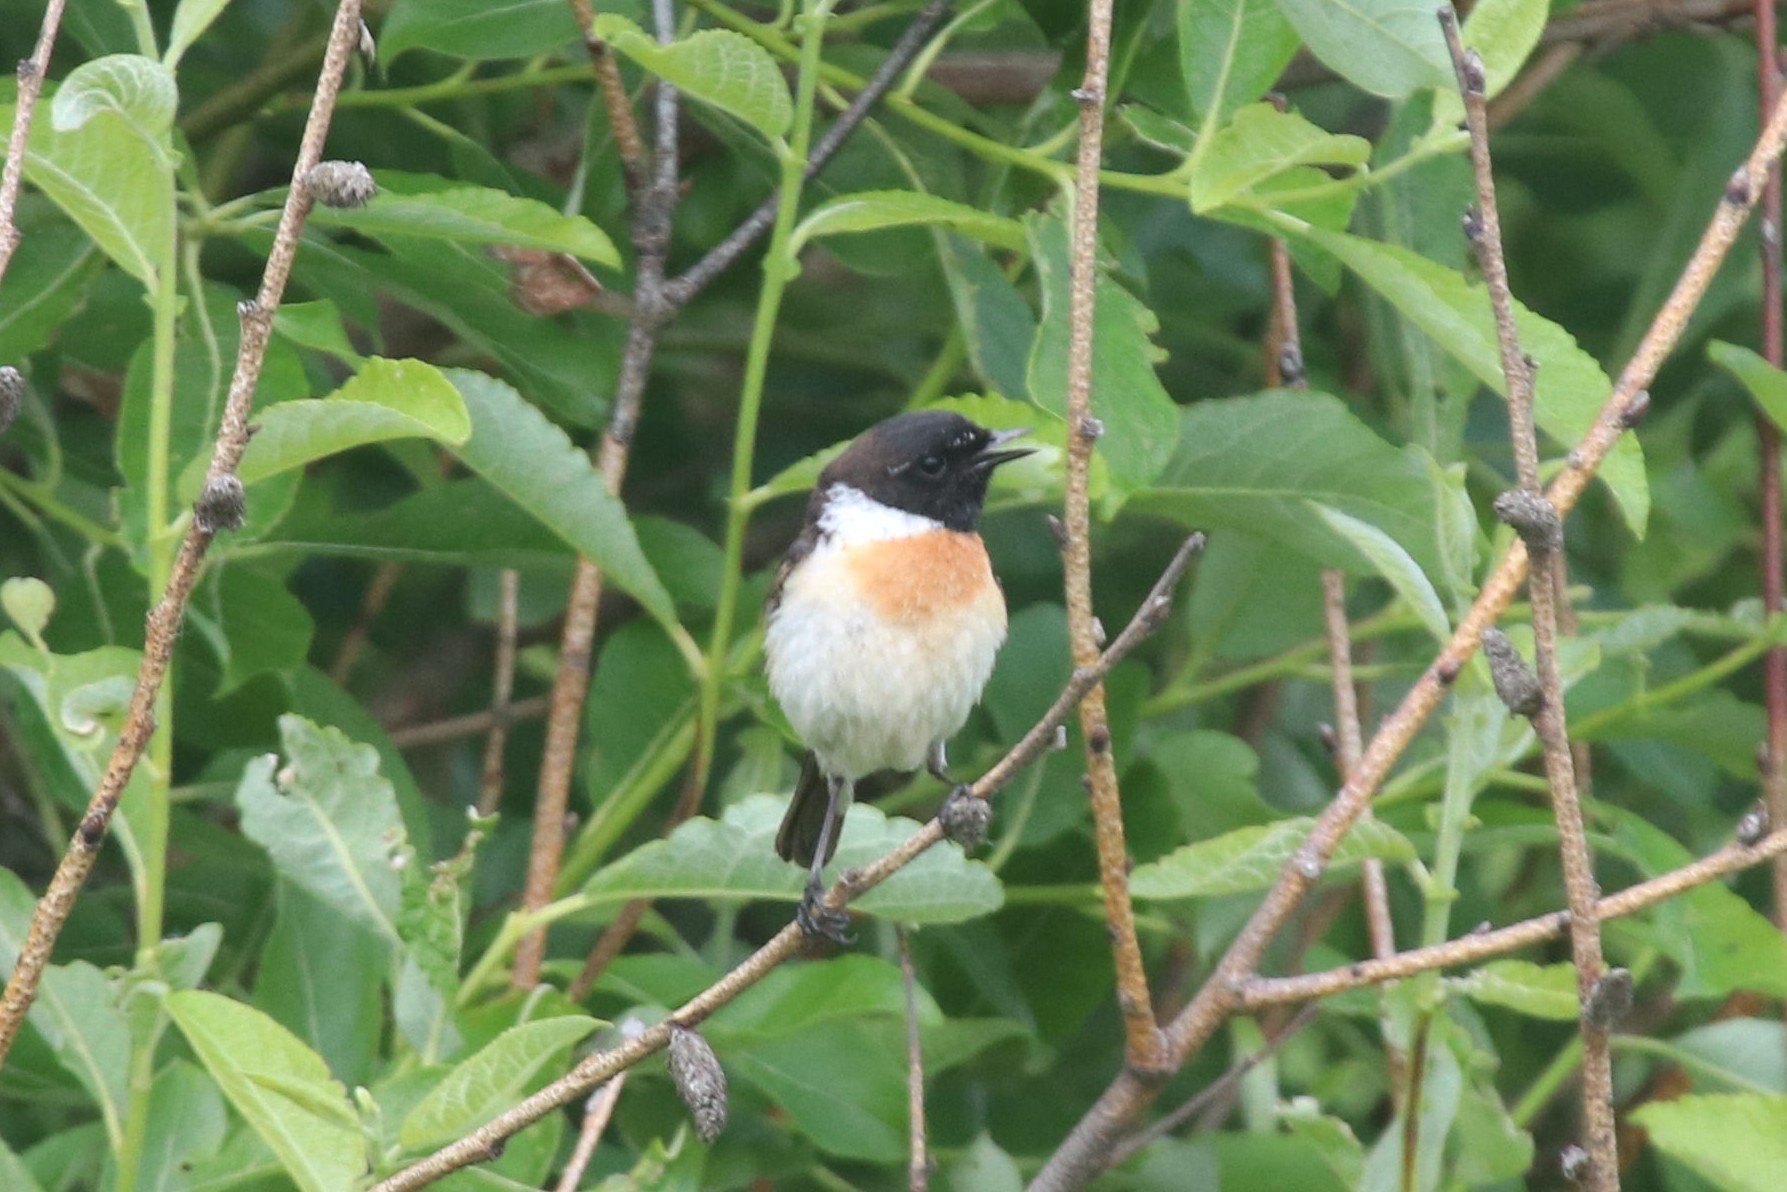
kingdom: Animalia
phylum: Chordata
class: Aves
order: Passeriformes
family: Muscicapidae
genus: Saxicola
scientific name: Saxicola maurus
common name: Siberian stonechat
